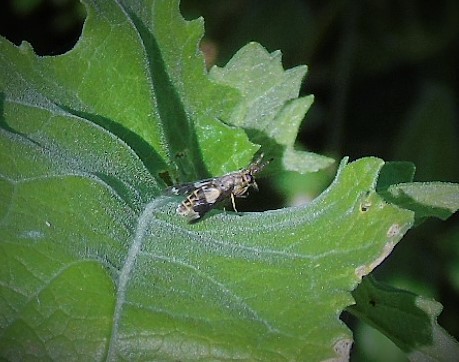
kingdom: Animalia
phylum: Arthropoda
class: Insecta
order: Diptera
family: Tabanidae
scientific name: Tabanidae
